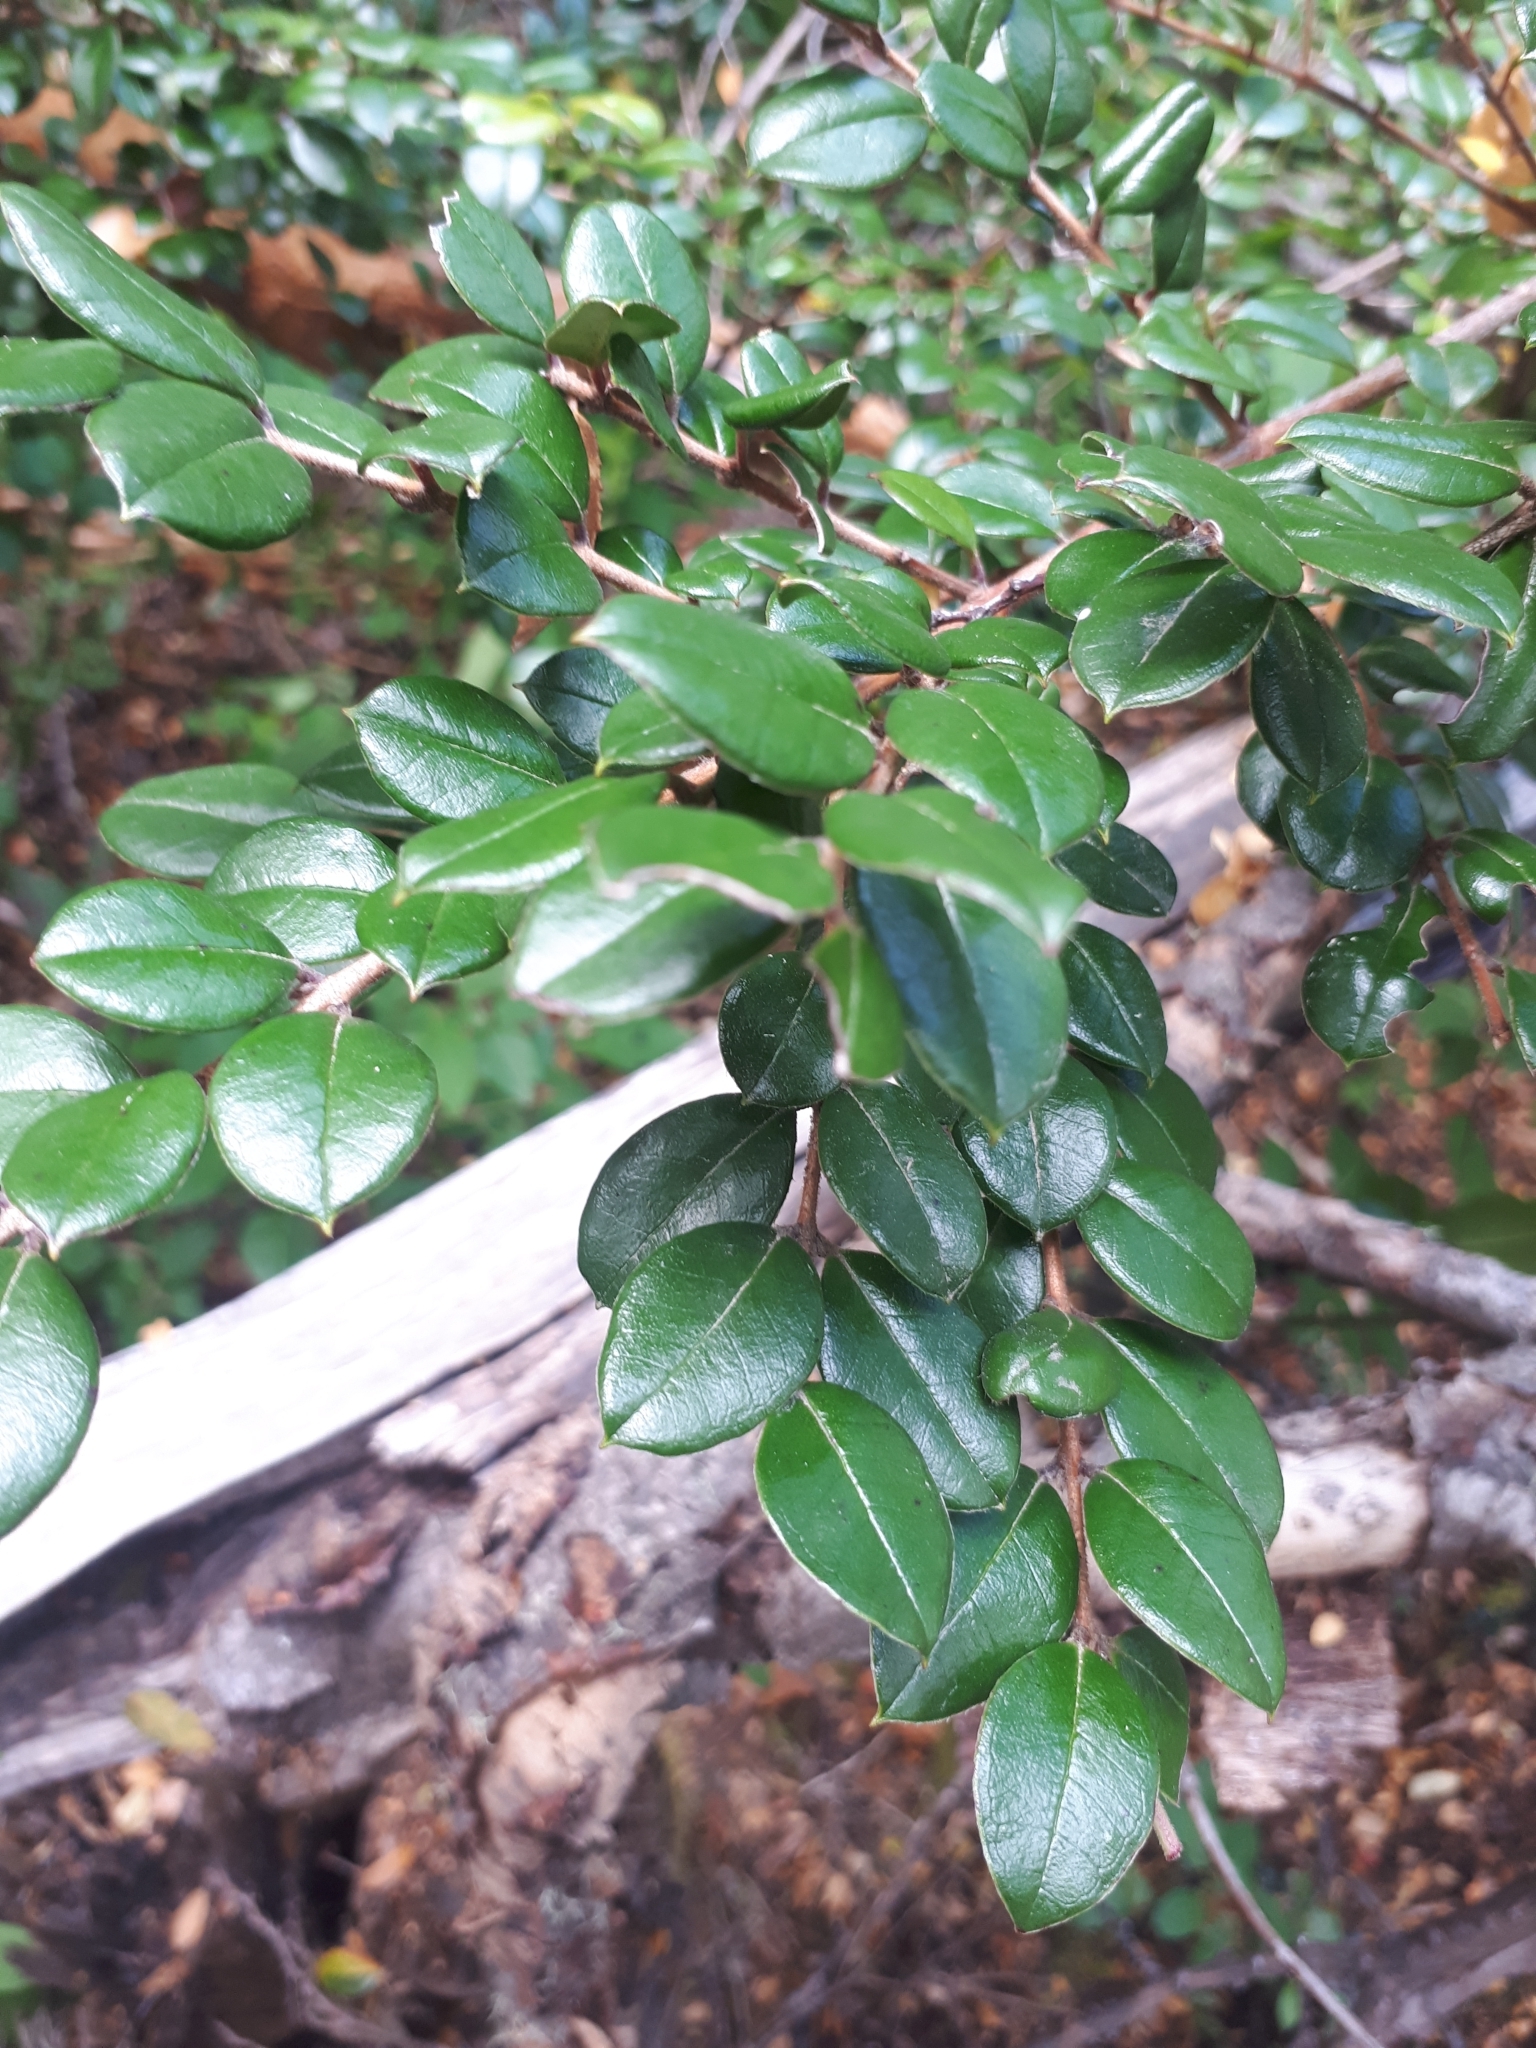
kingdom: Plantae
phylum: Tracheophyta
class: Magnoliopsida
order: Myrtales
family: Myrtaceae
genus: Luma
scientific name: Luma apiculata
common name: Chilean myrtle
